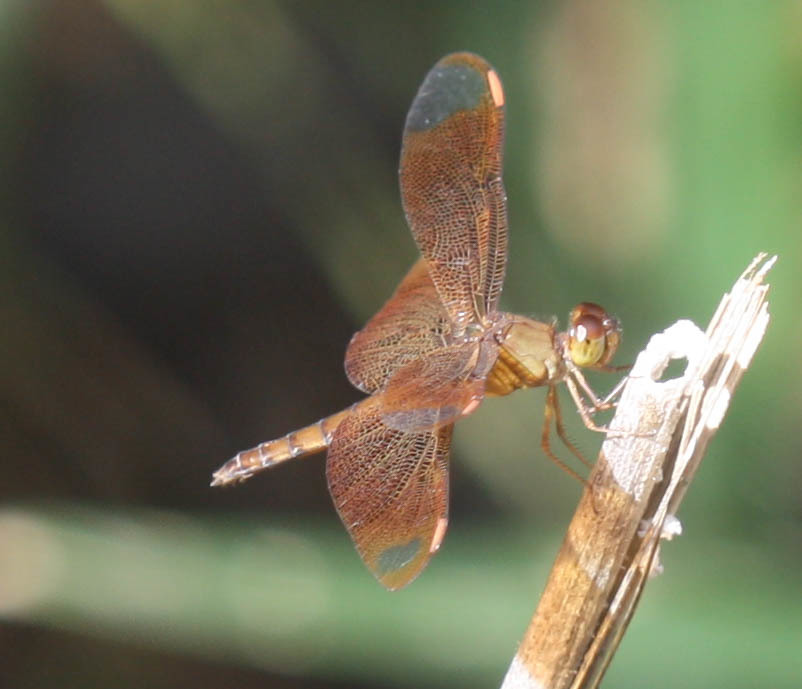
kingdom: Animalia
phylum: Arthropoda
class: Insecta
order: Odonata
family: Libellulidae
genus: Neurothemis
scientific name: Neurothemis fulvia
